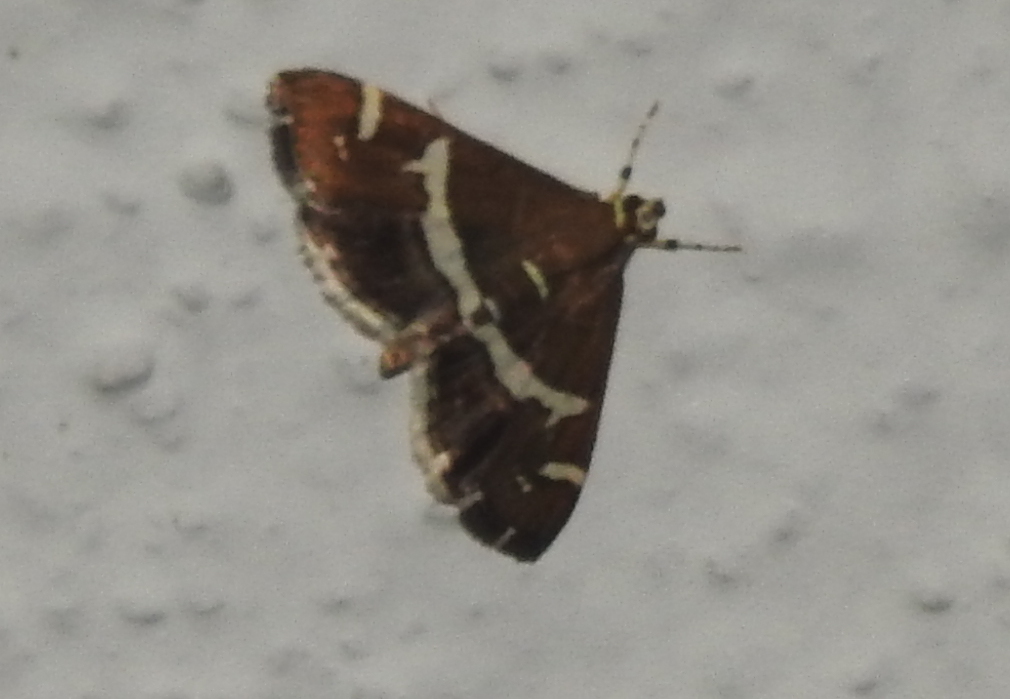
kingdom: Animalia
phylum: Arthropoda
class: Insecta
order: Lepidoptera
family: Crambidae
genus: Spoladea
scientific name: Spoladea recurvalis
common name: Beet webworm moth
